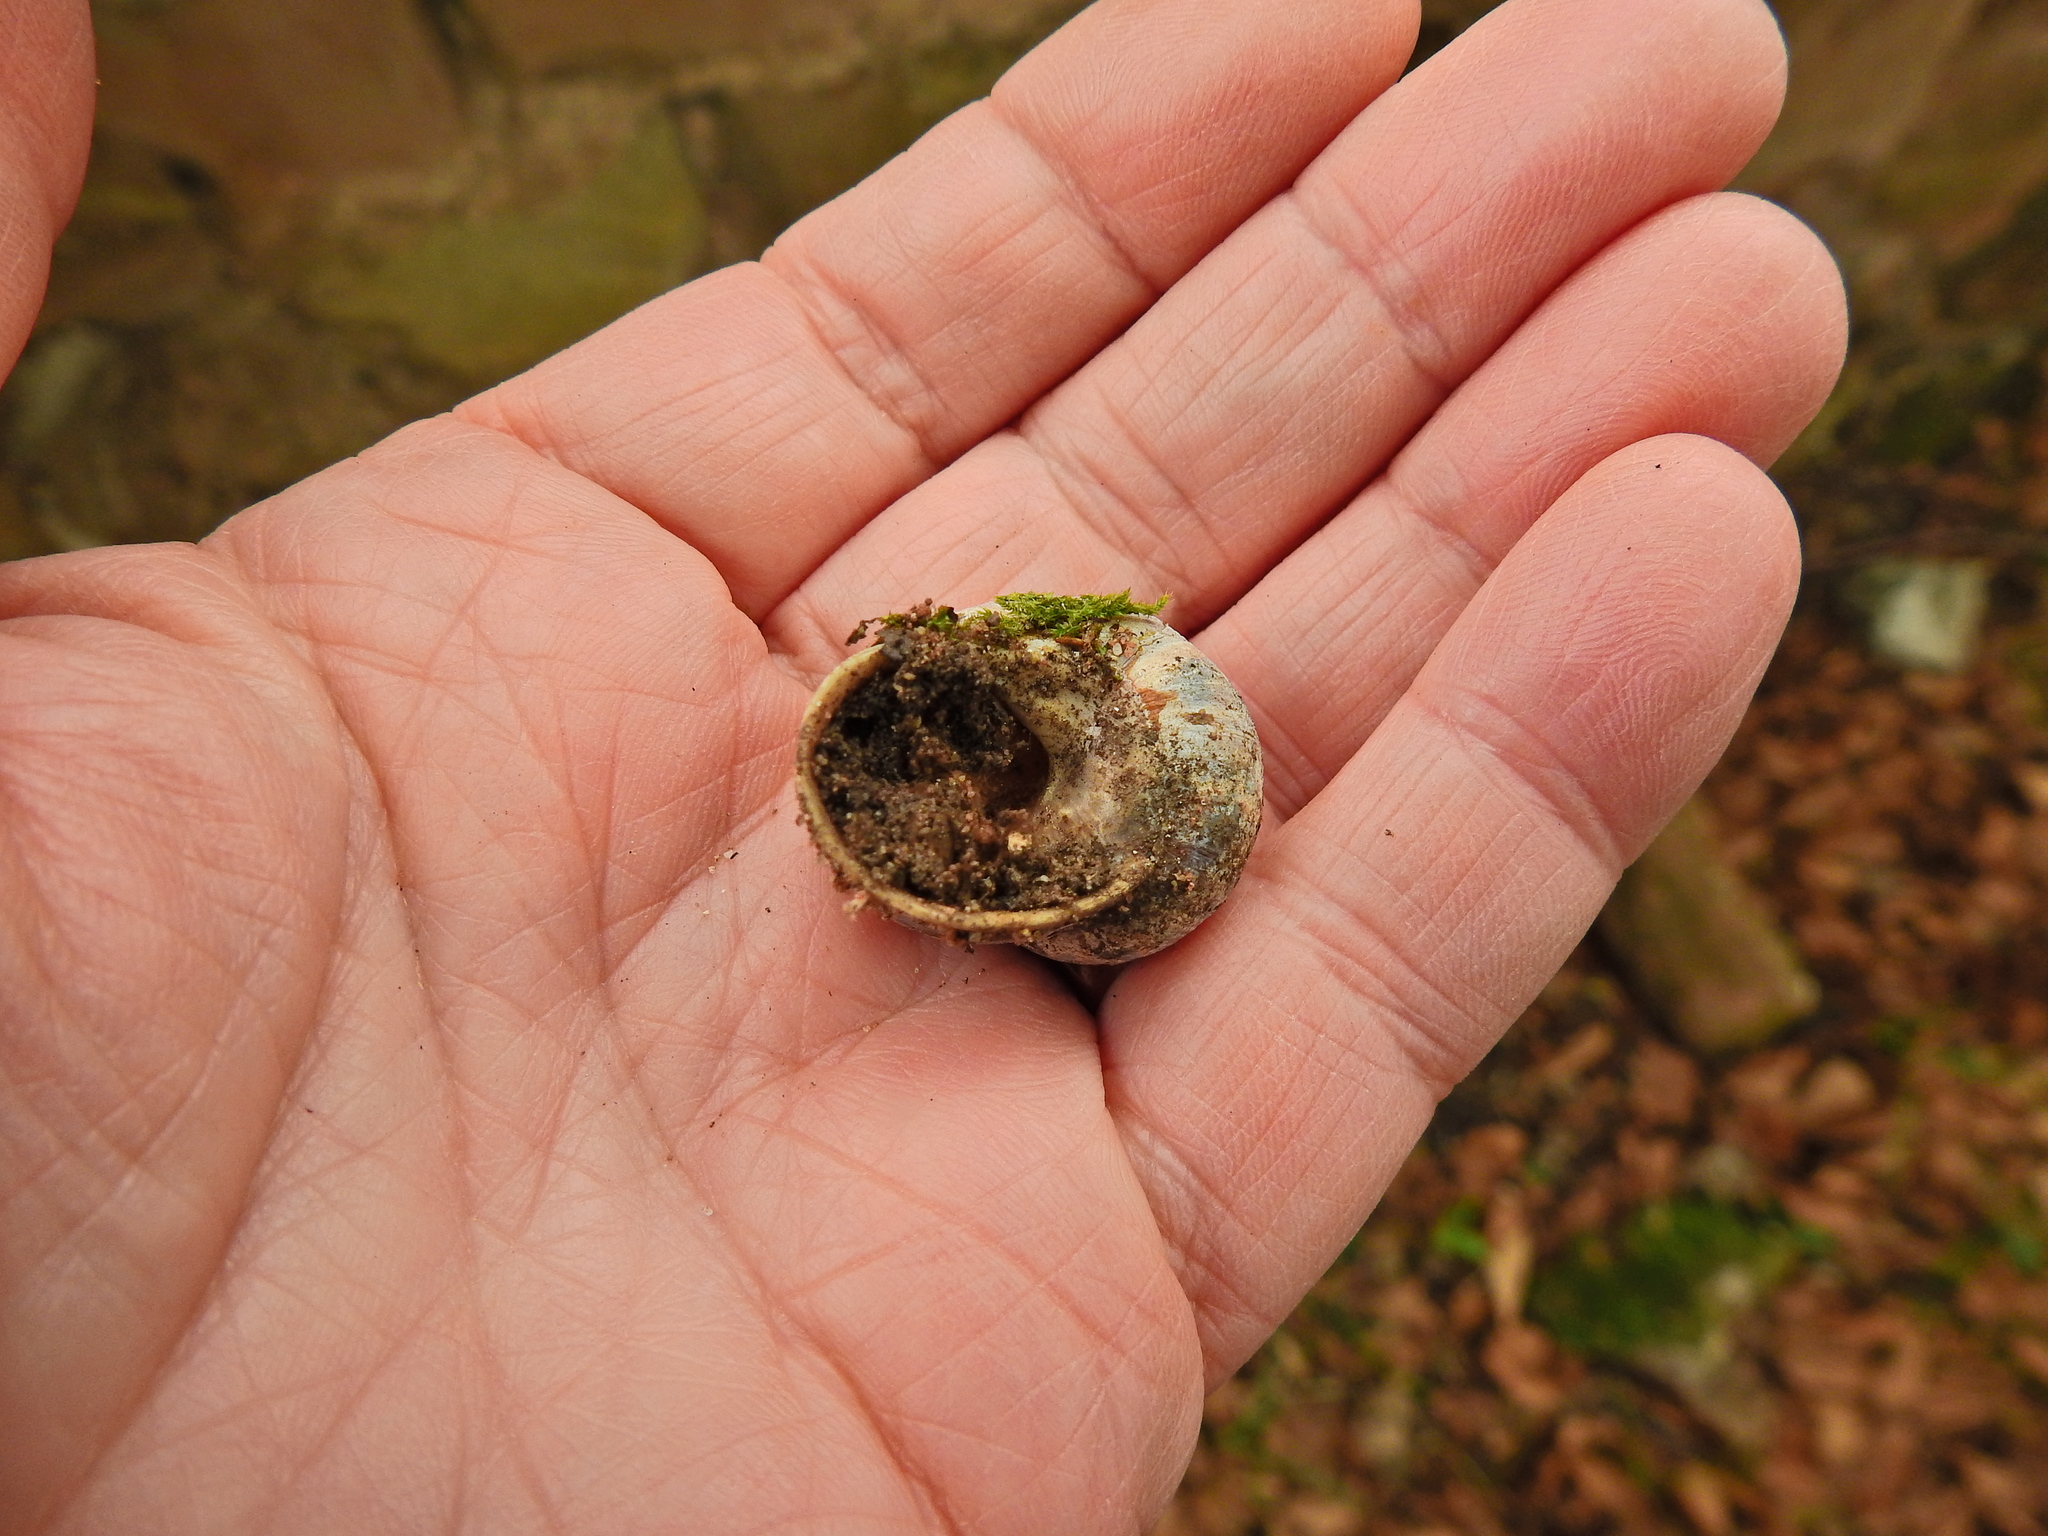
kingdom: Animalia
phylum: Mollusca
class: Gastropoda
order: Stylommatophora
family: Helicidae
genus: Cornu
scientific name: Cornu aspersum
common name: Brown garden snail
